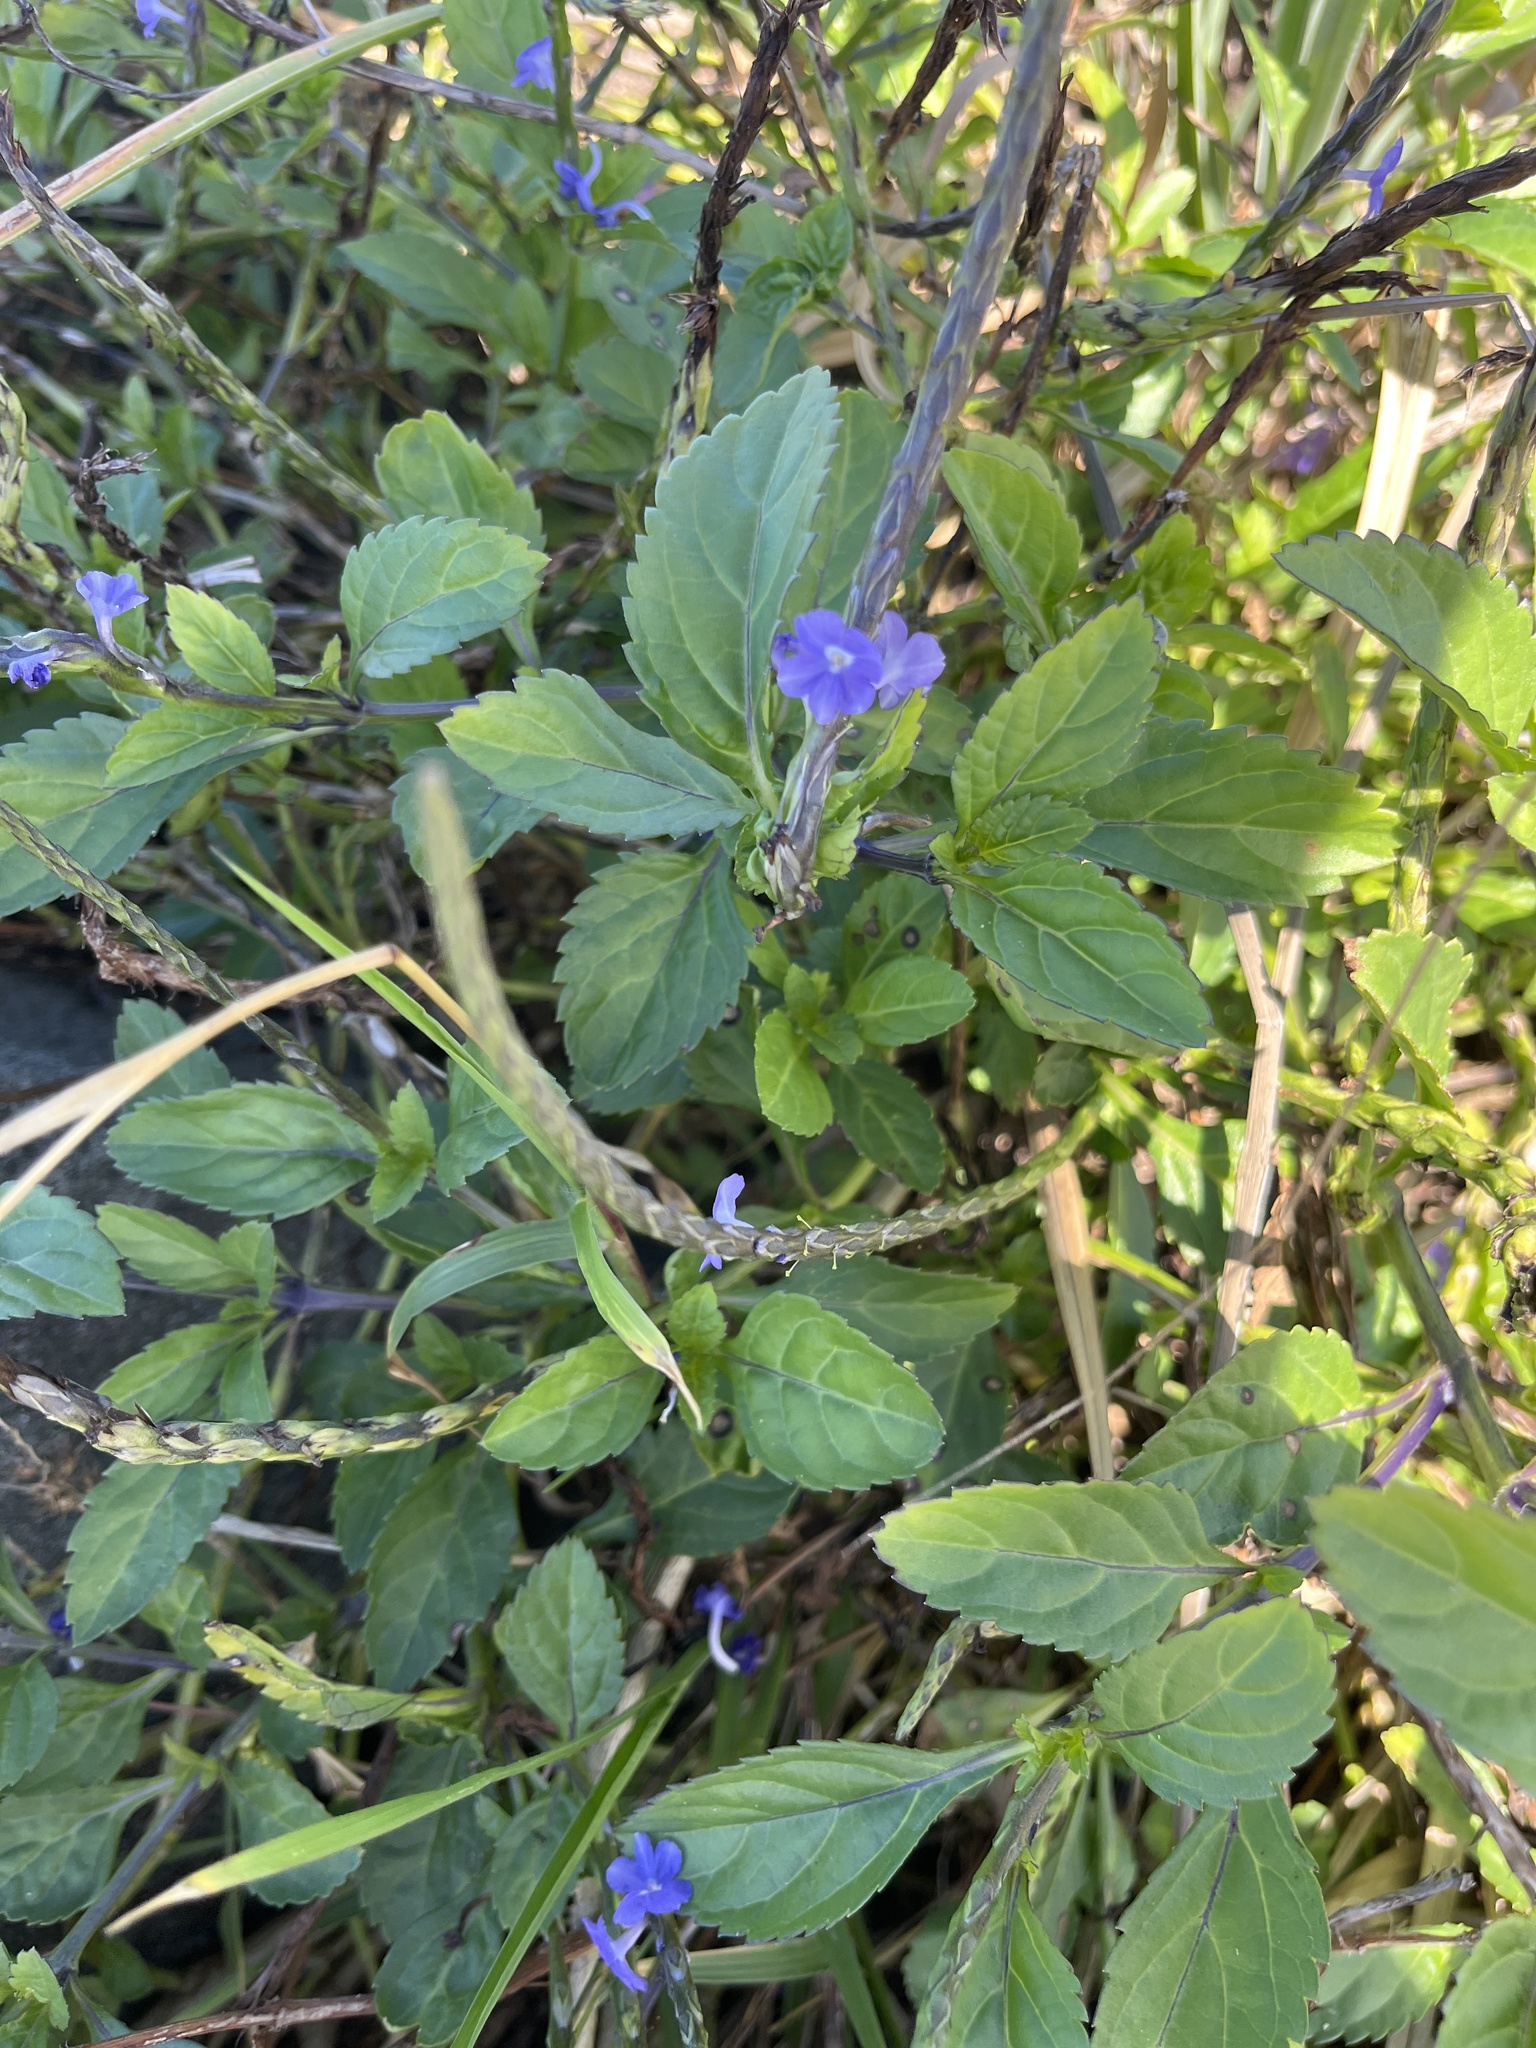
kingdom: Plantae
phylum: Tracheophyta
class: Magnoliopsida
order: Lamiales
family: Verbenaceae
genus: Stachytarpheta
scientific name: Stachytarpheta jamaicensis
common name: Light-blue snakeweed
